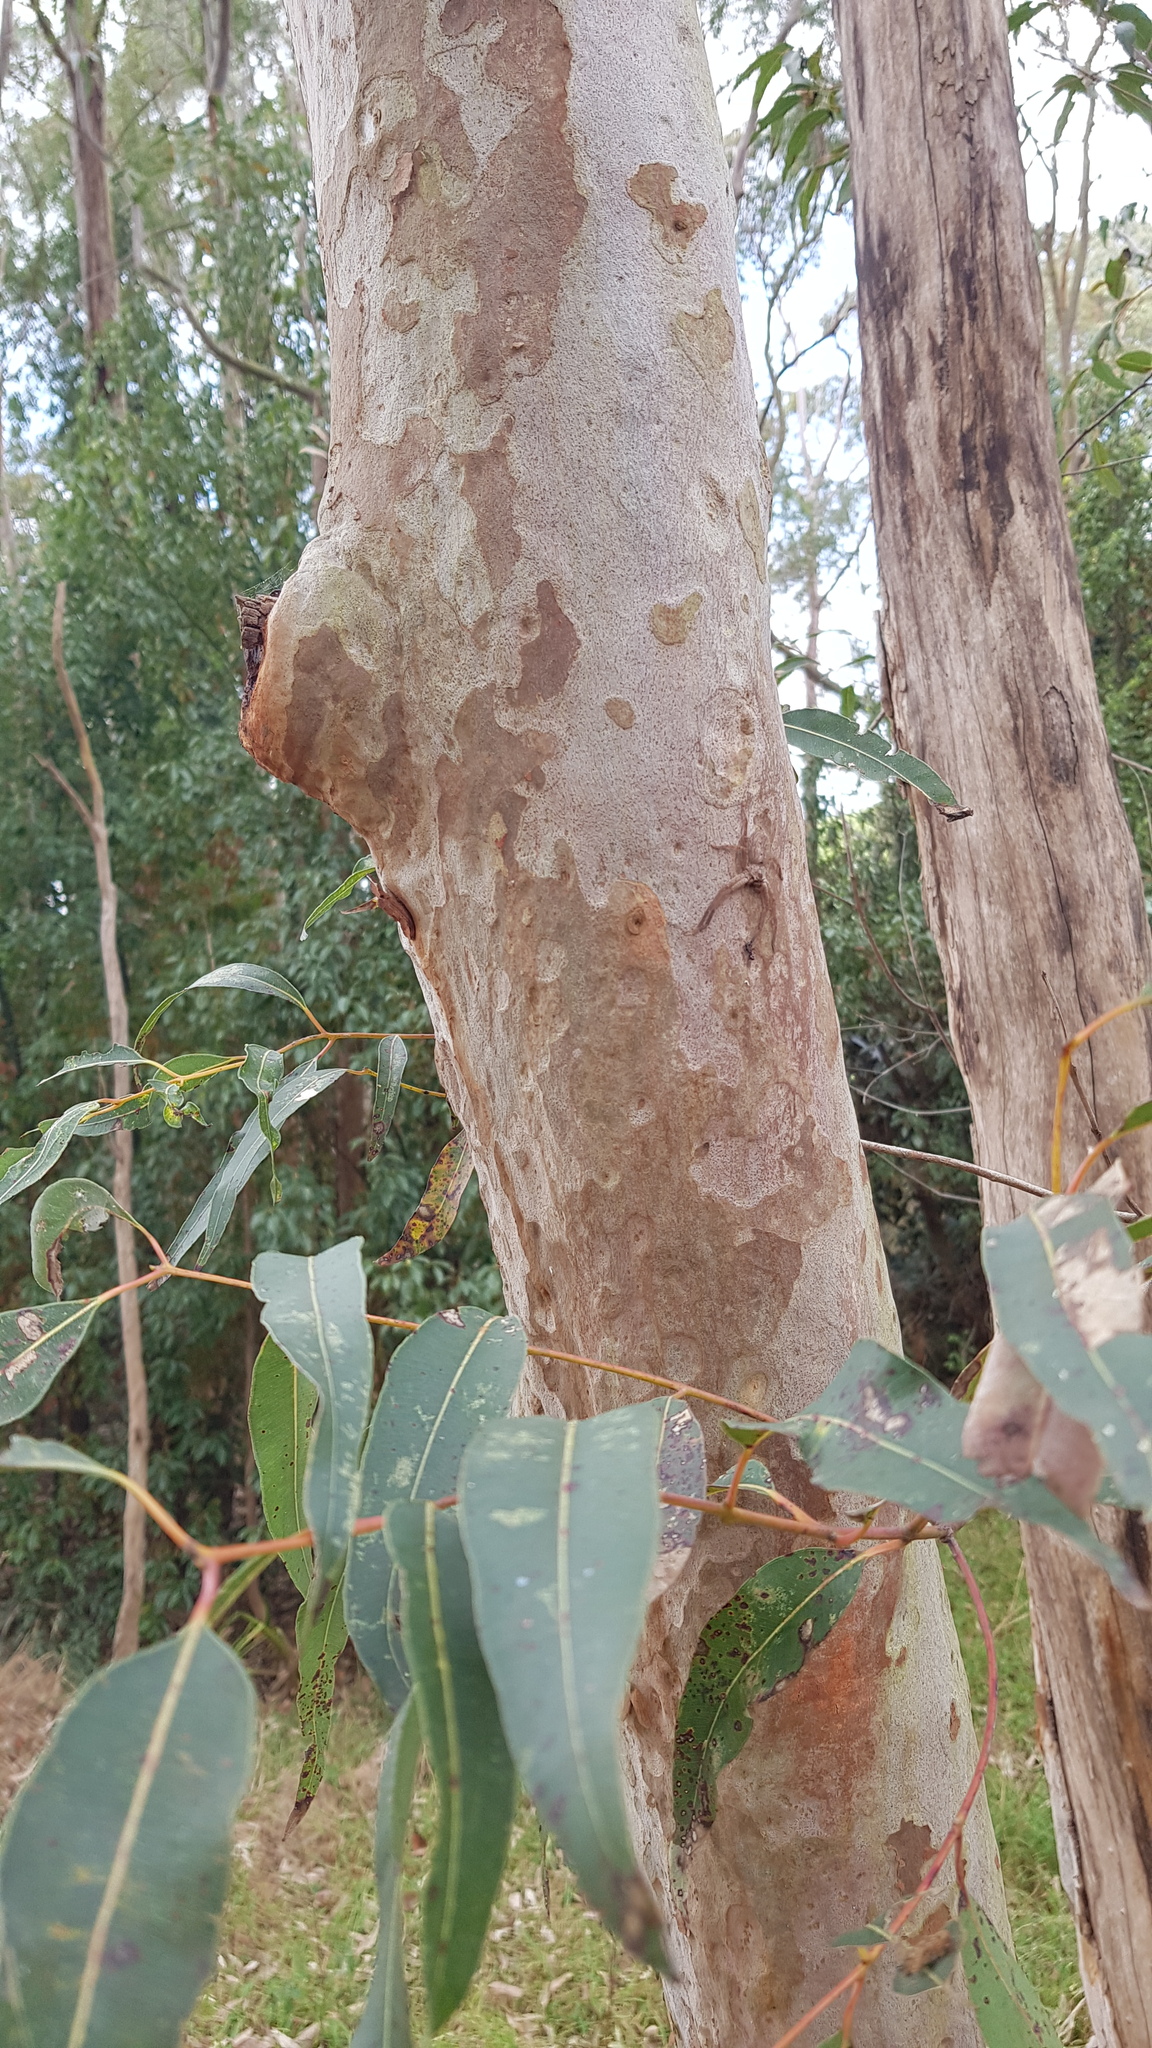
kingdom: Animalia
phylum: Arthropoda
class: Arachnida
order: Araneae
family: Sparassidae
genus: Isopeda
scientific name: Isopeda villosa
